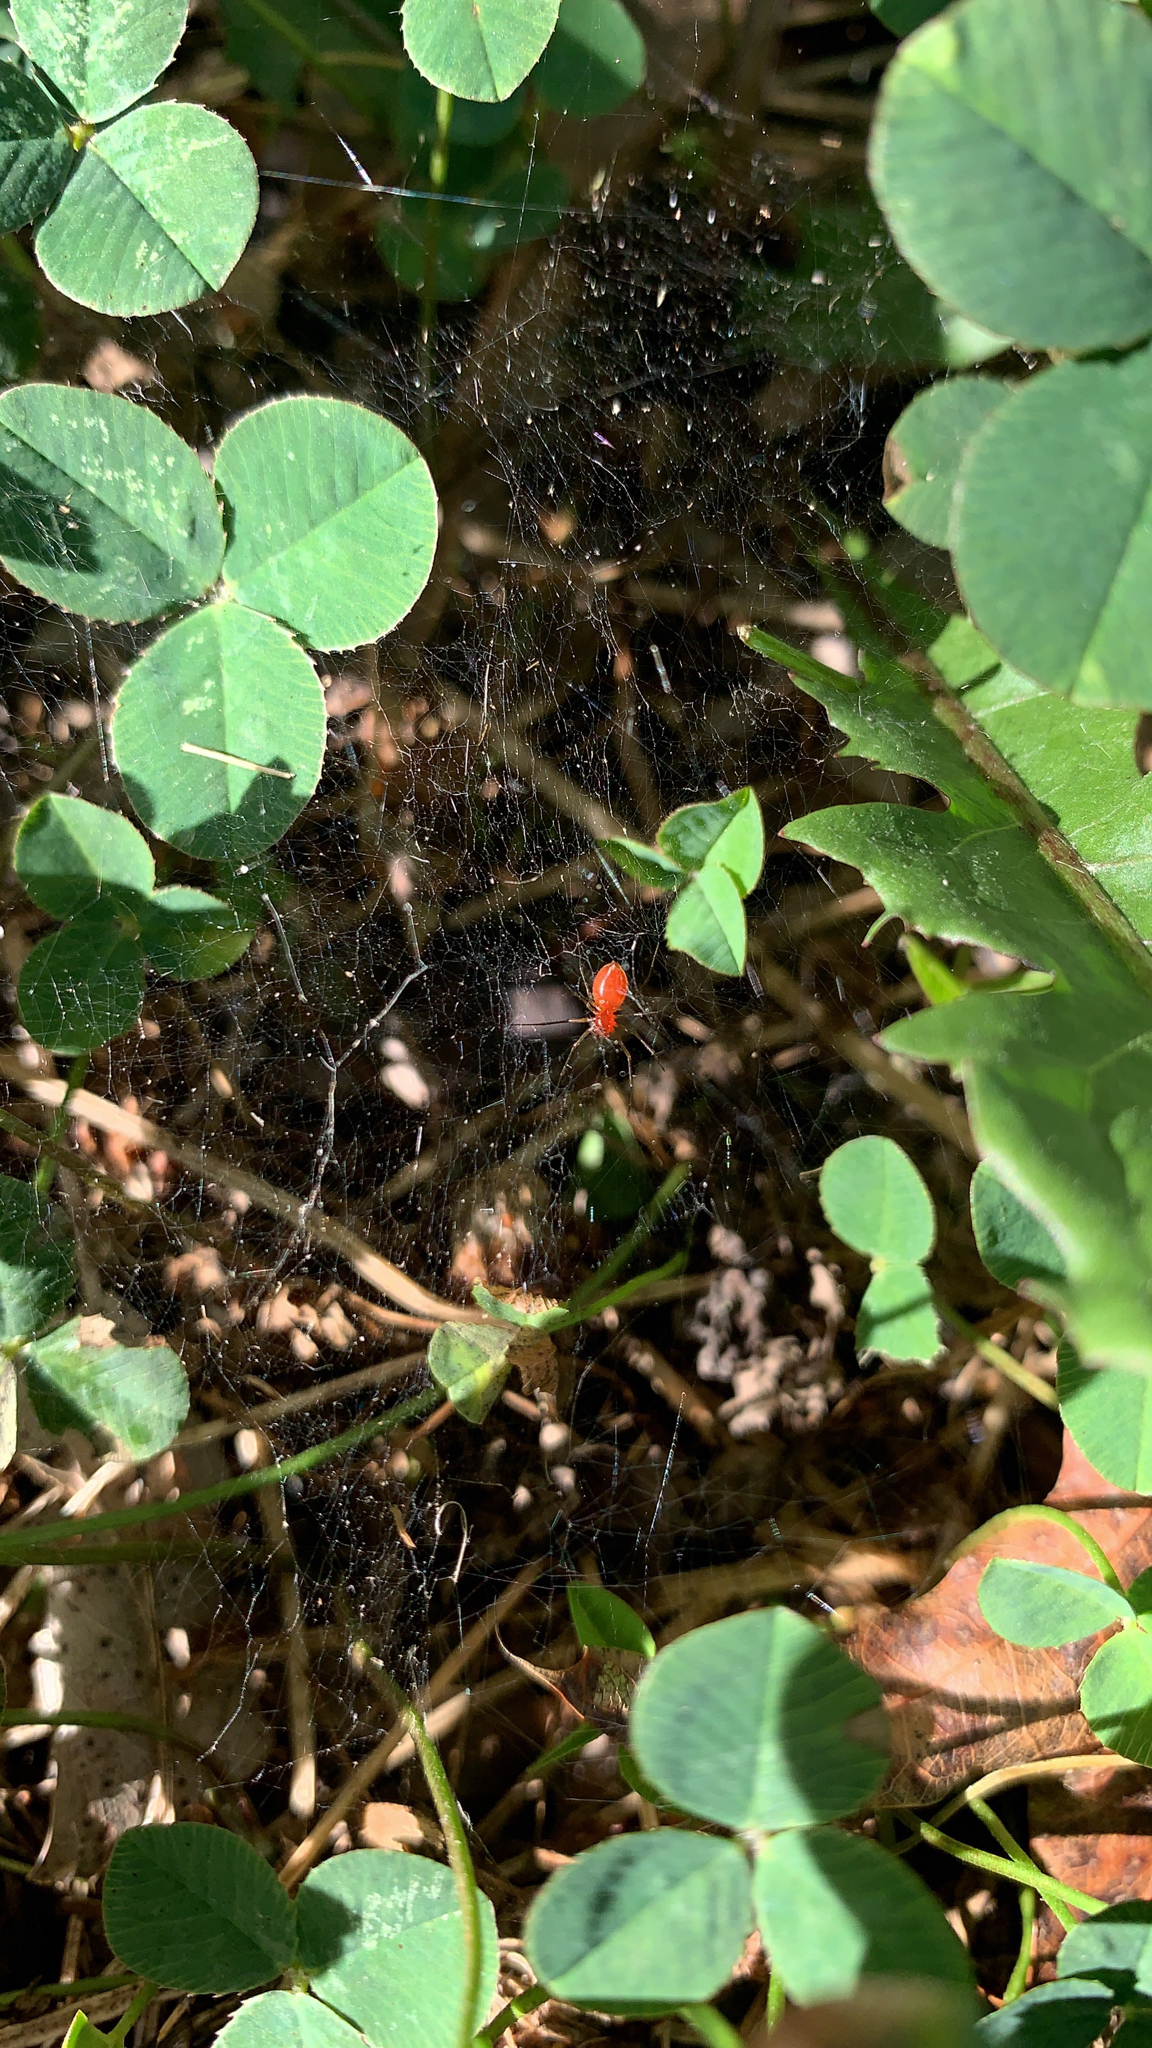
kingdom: Animalia
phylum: Arthropoda
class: Arachnida
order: Araneae
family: Linyphiidae
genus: Florinda
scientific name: Florinda coccinea
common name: Black-tailed red sheetweaver
